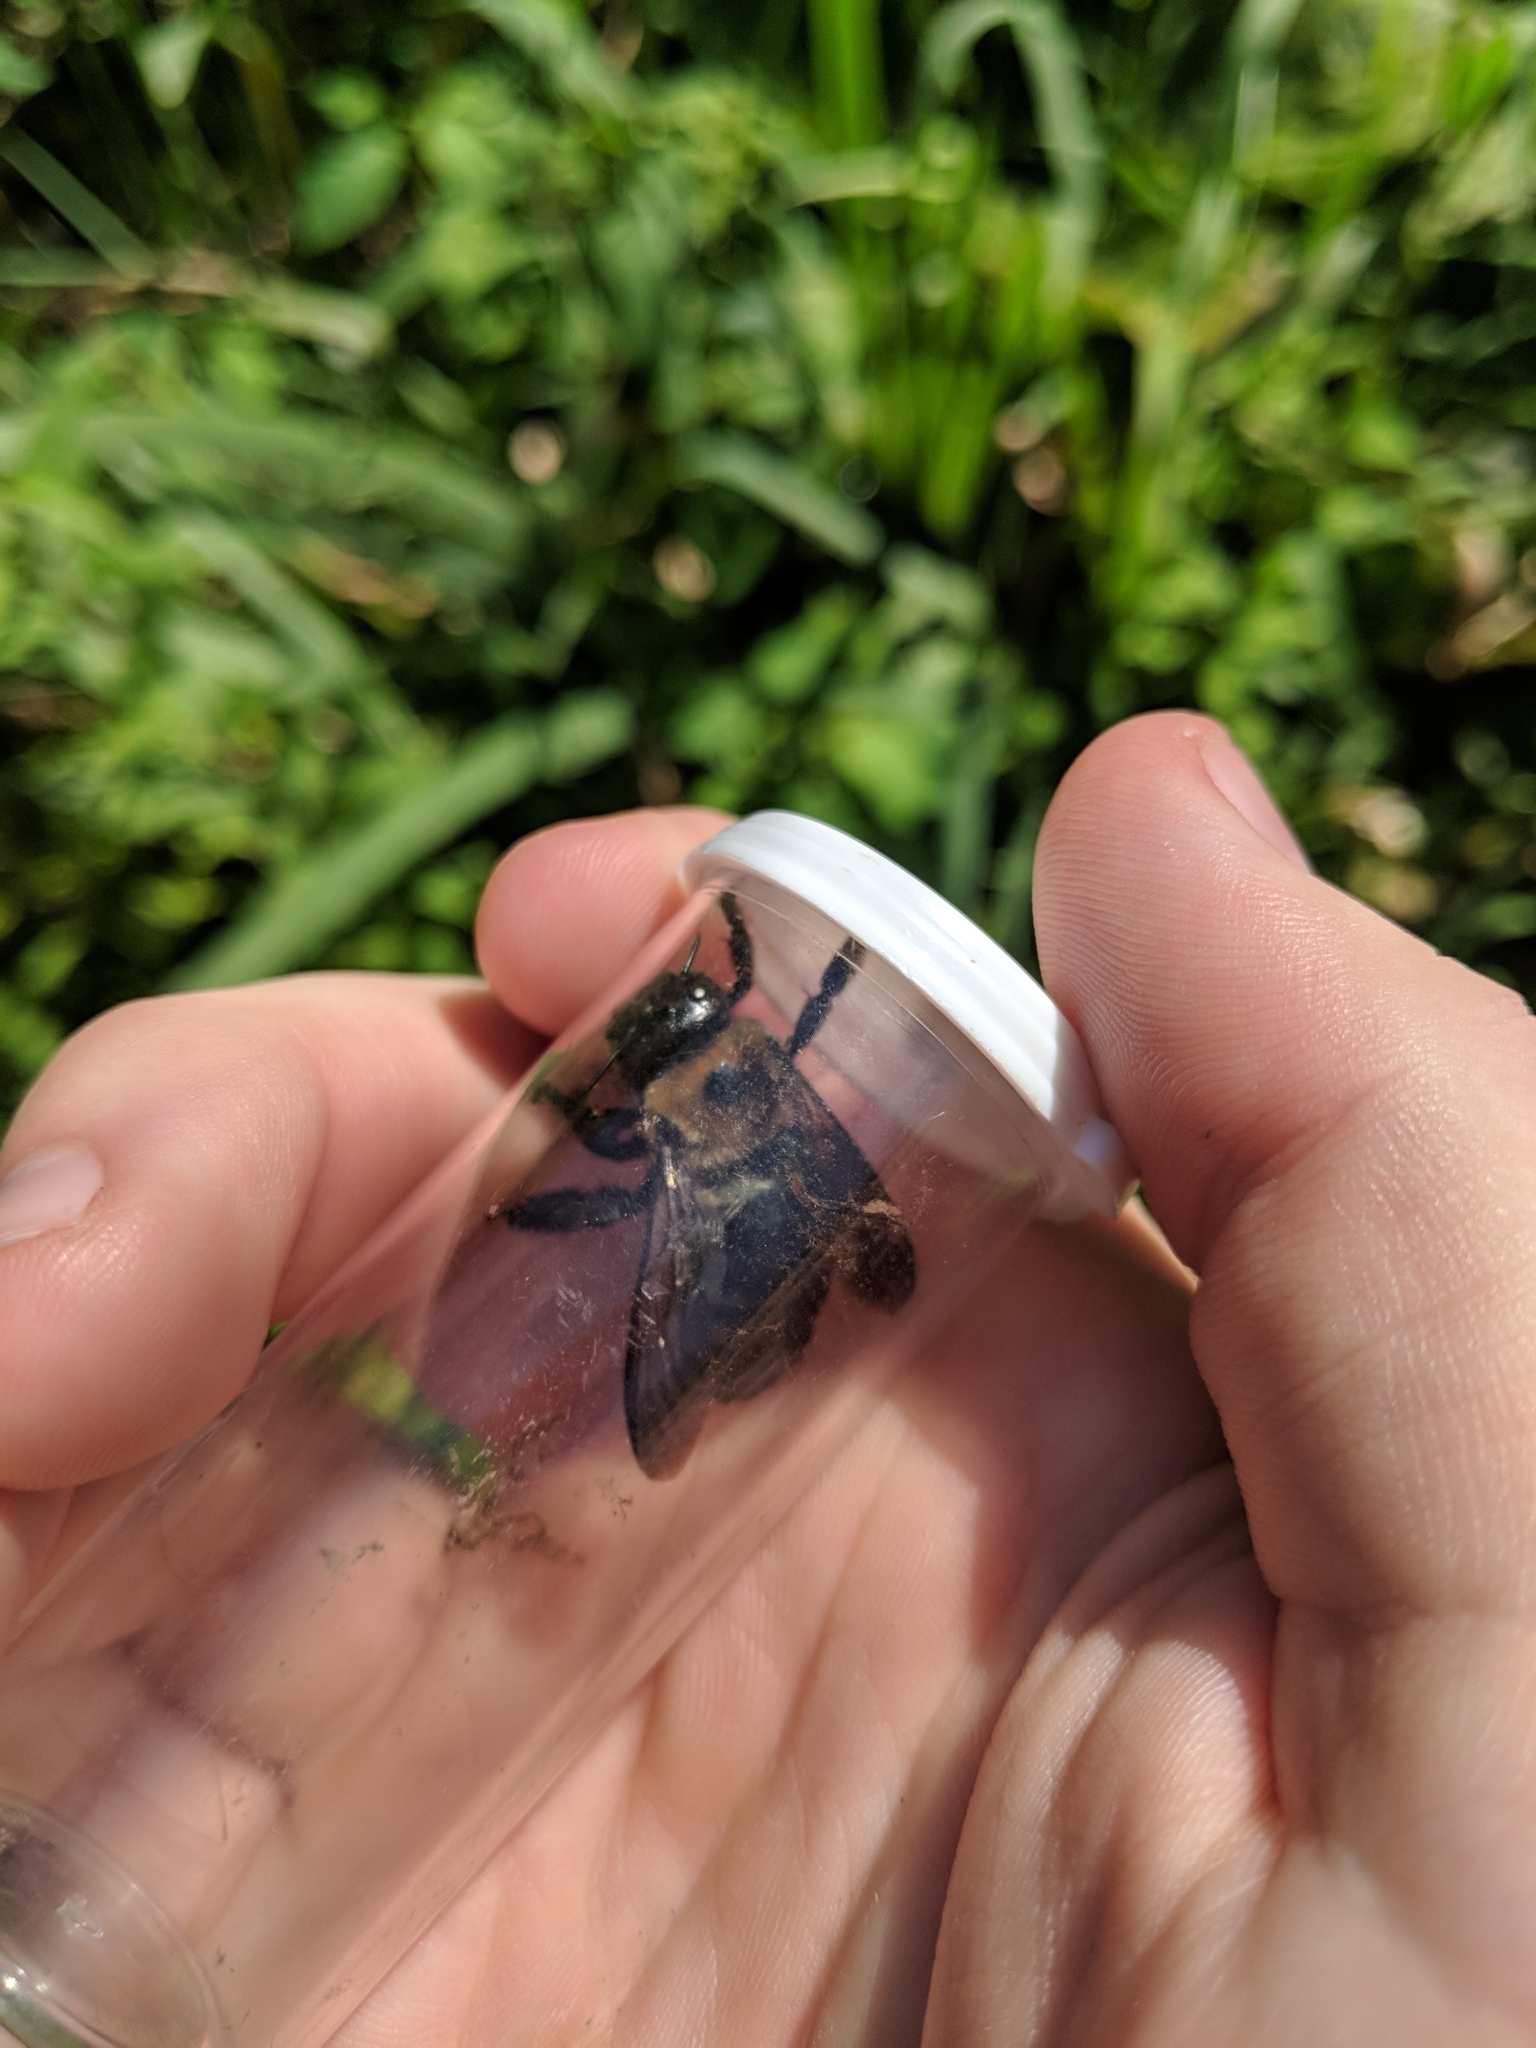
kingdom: Animalia
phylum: Arthropoda
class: Insecta
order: Hymenoptera
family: Apidae
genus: Xylocopa
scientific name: Xylocopa virginica
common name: Carpenter bee
